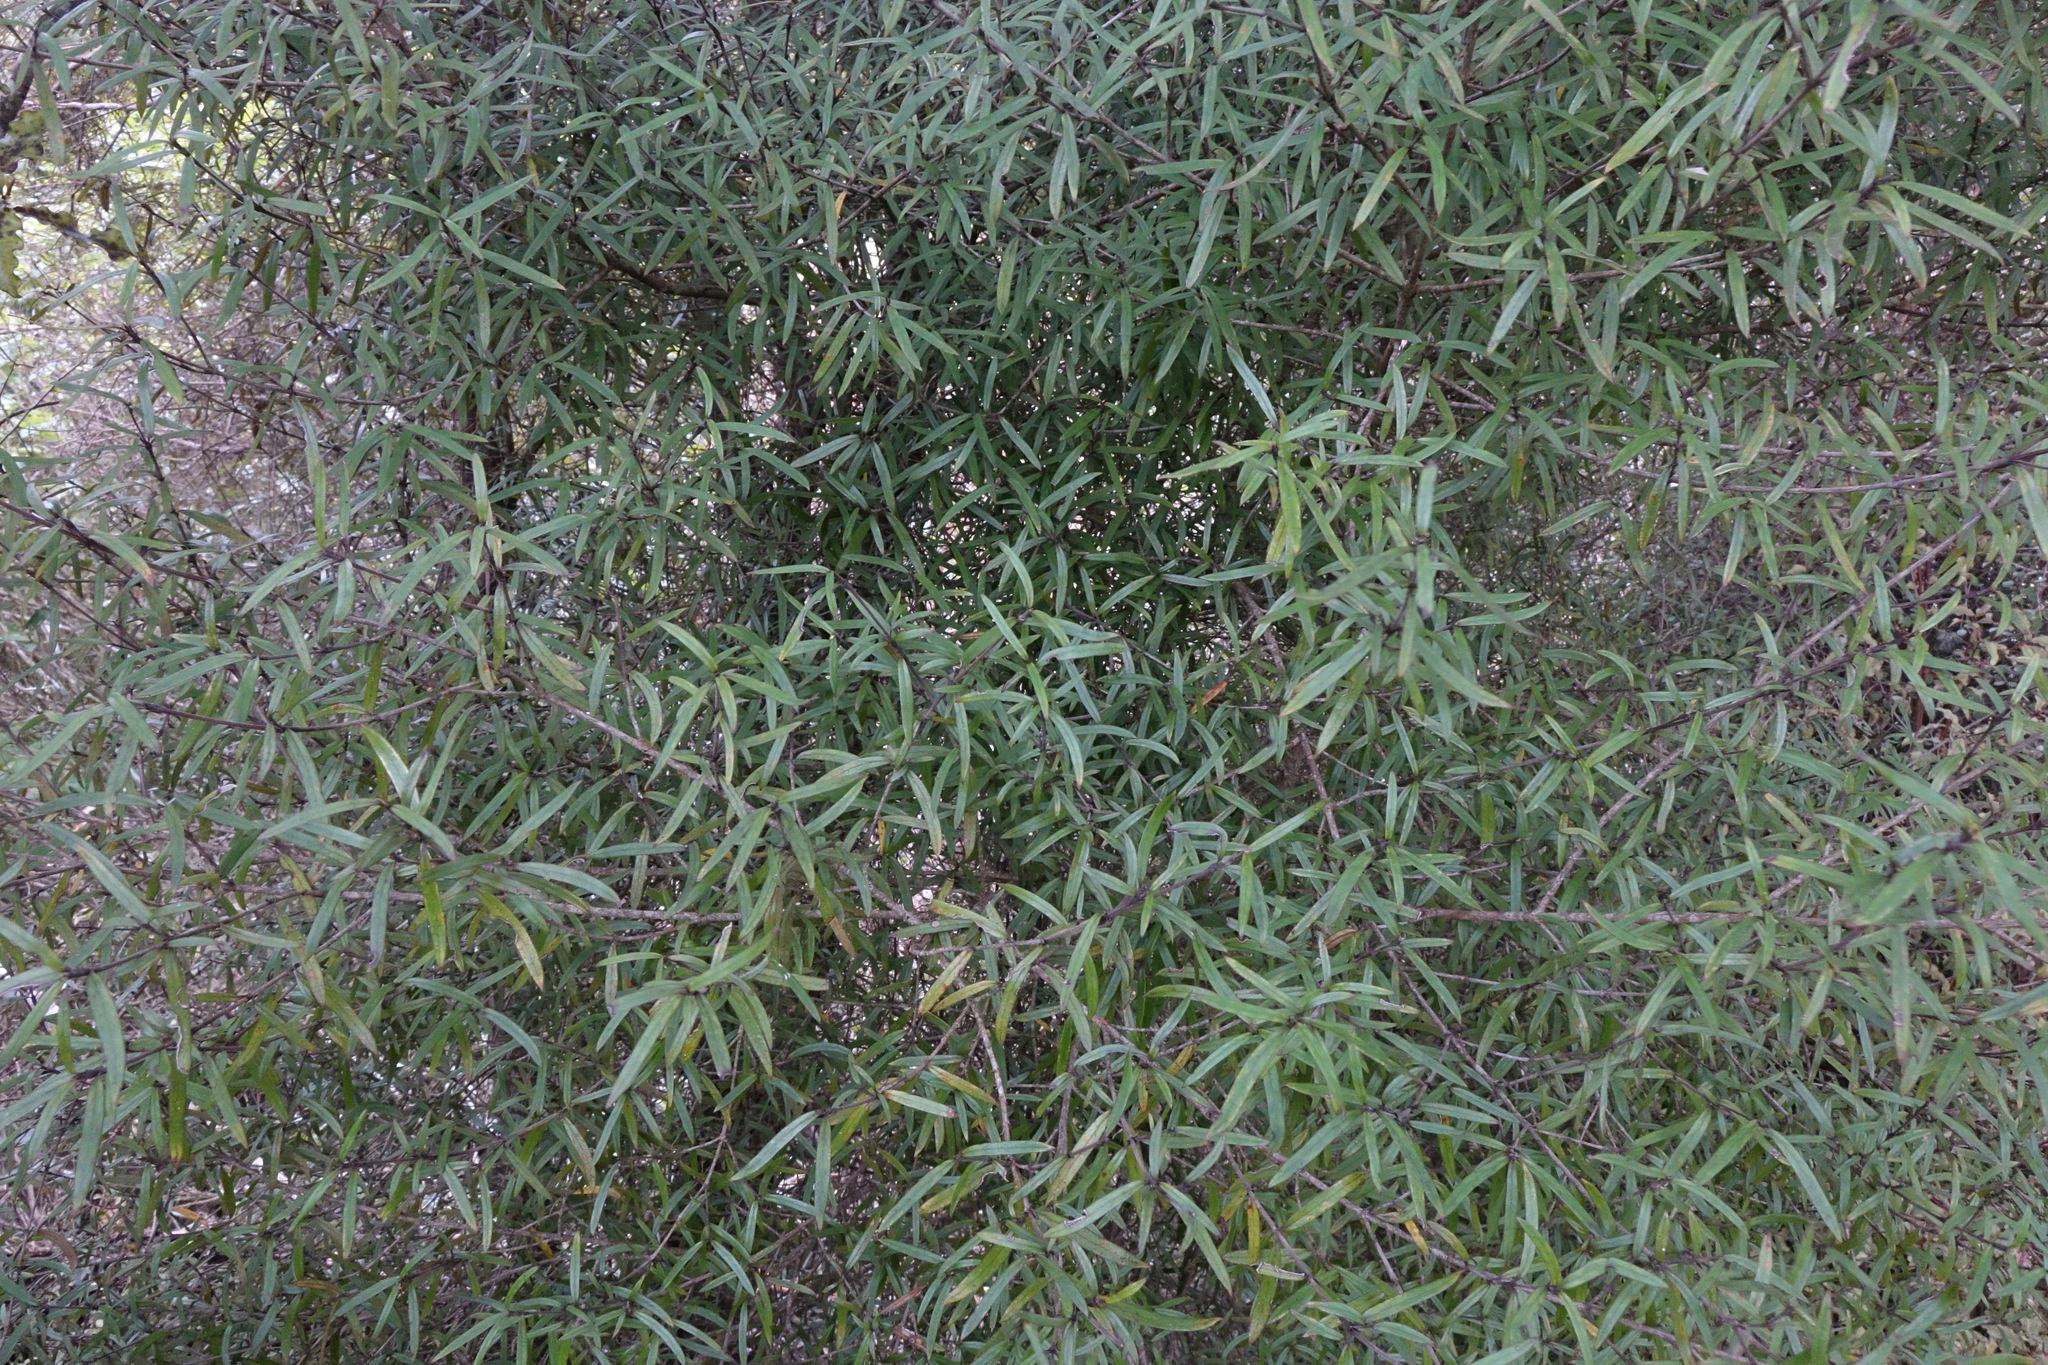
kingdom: Plantae
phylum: Tracheophyta
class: Magnoliopsida
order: Gentianales
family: Rubiaceae
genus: Coprosma
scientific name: Coprosma linariifolia
